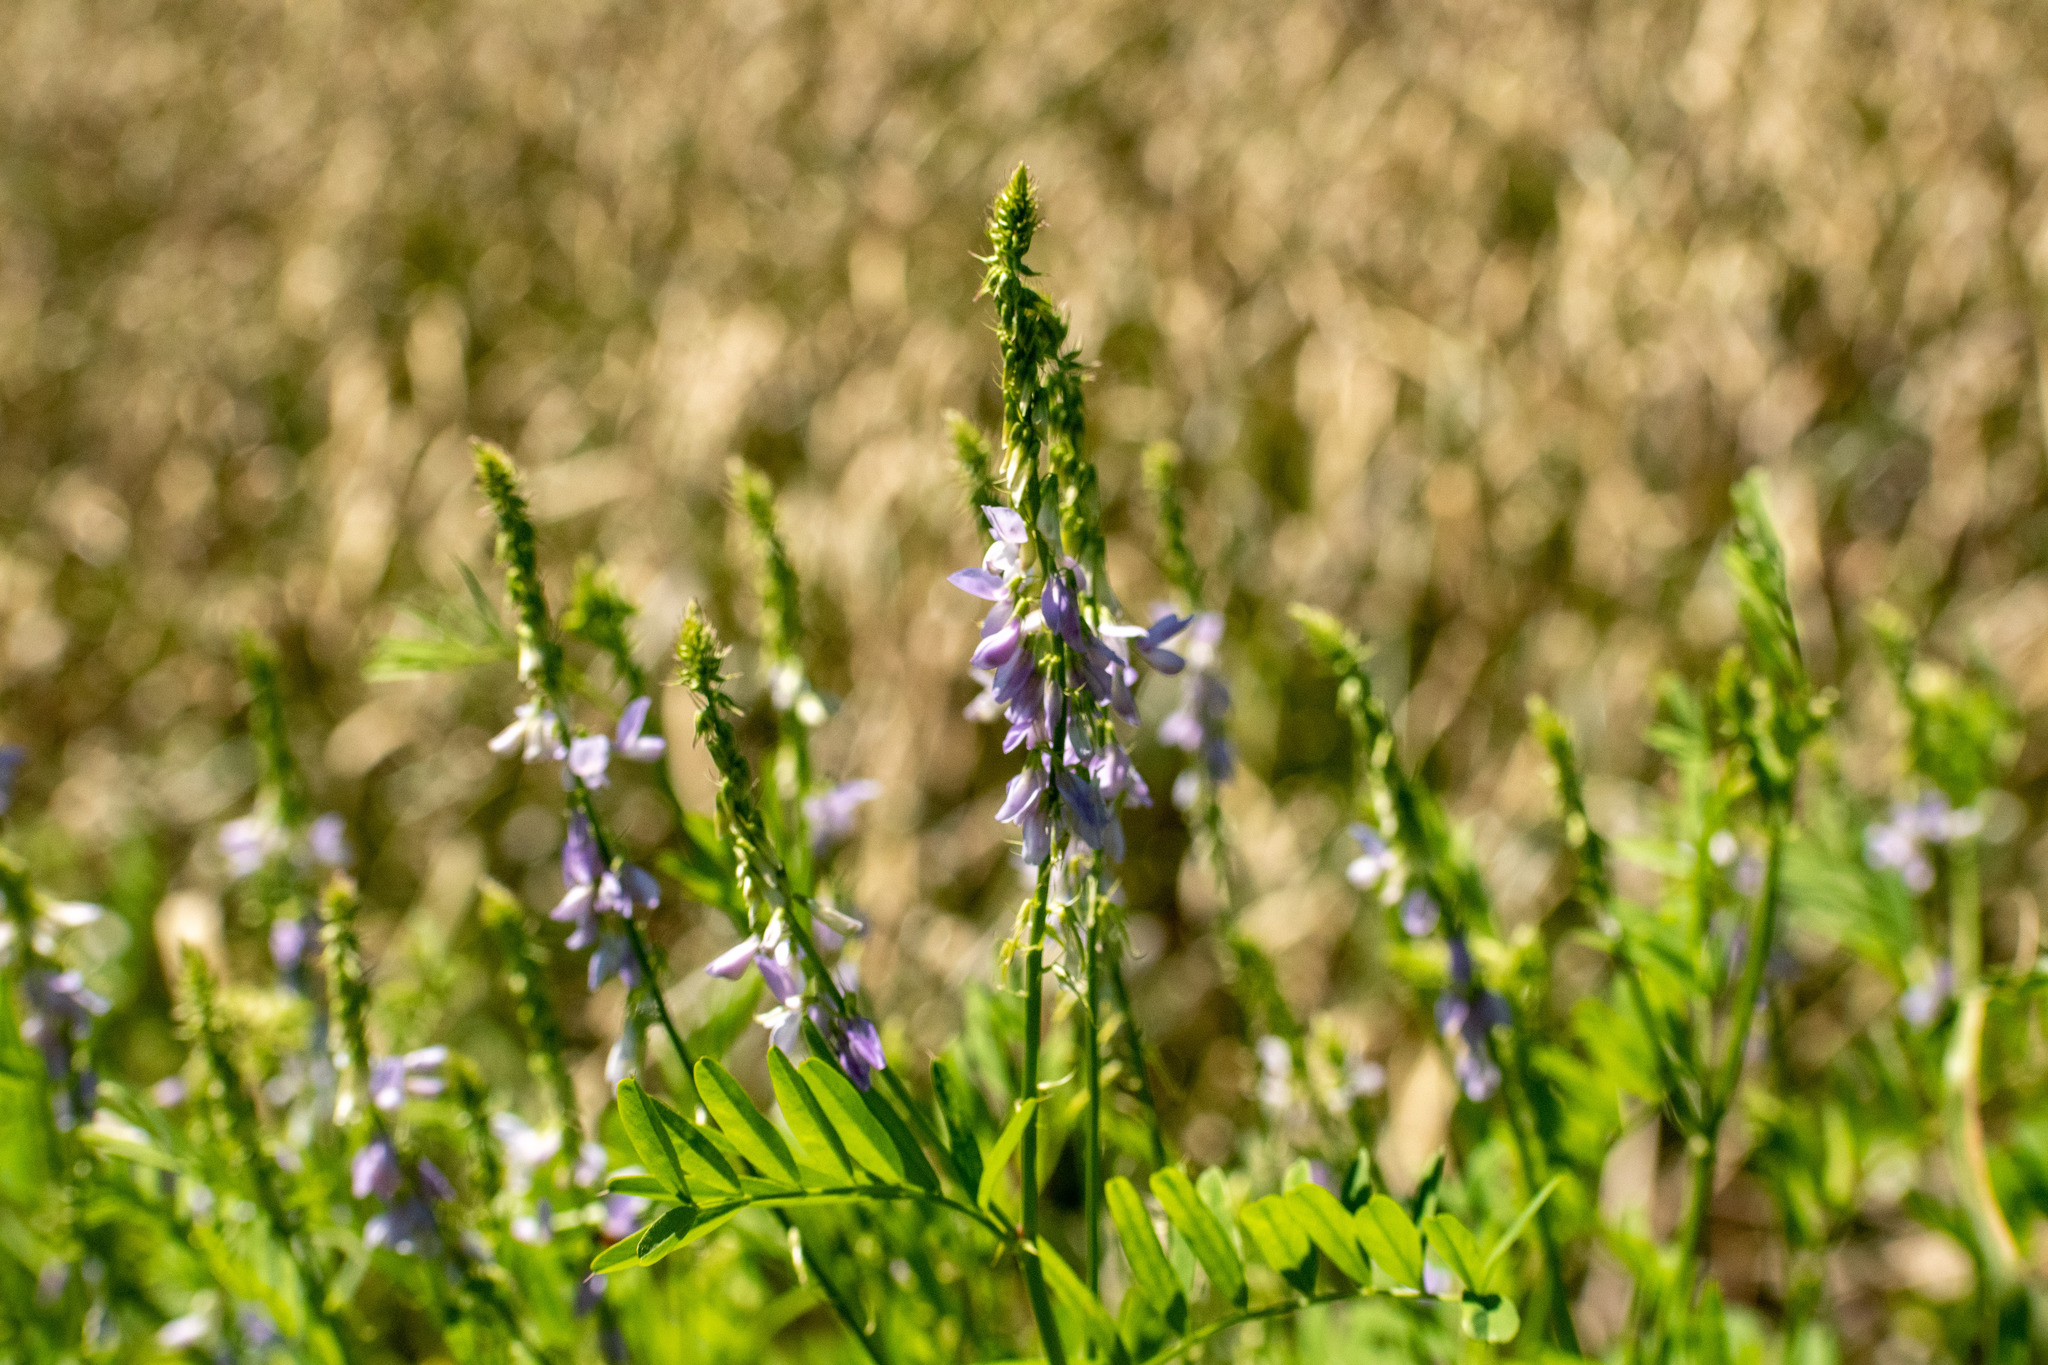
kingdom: Plantae
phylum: Tracheophyta
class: Magnoliopsida
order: Fabales
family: Fabaceae
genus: Galega
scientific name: Galega officinalis
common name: Goat's-rue
